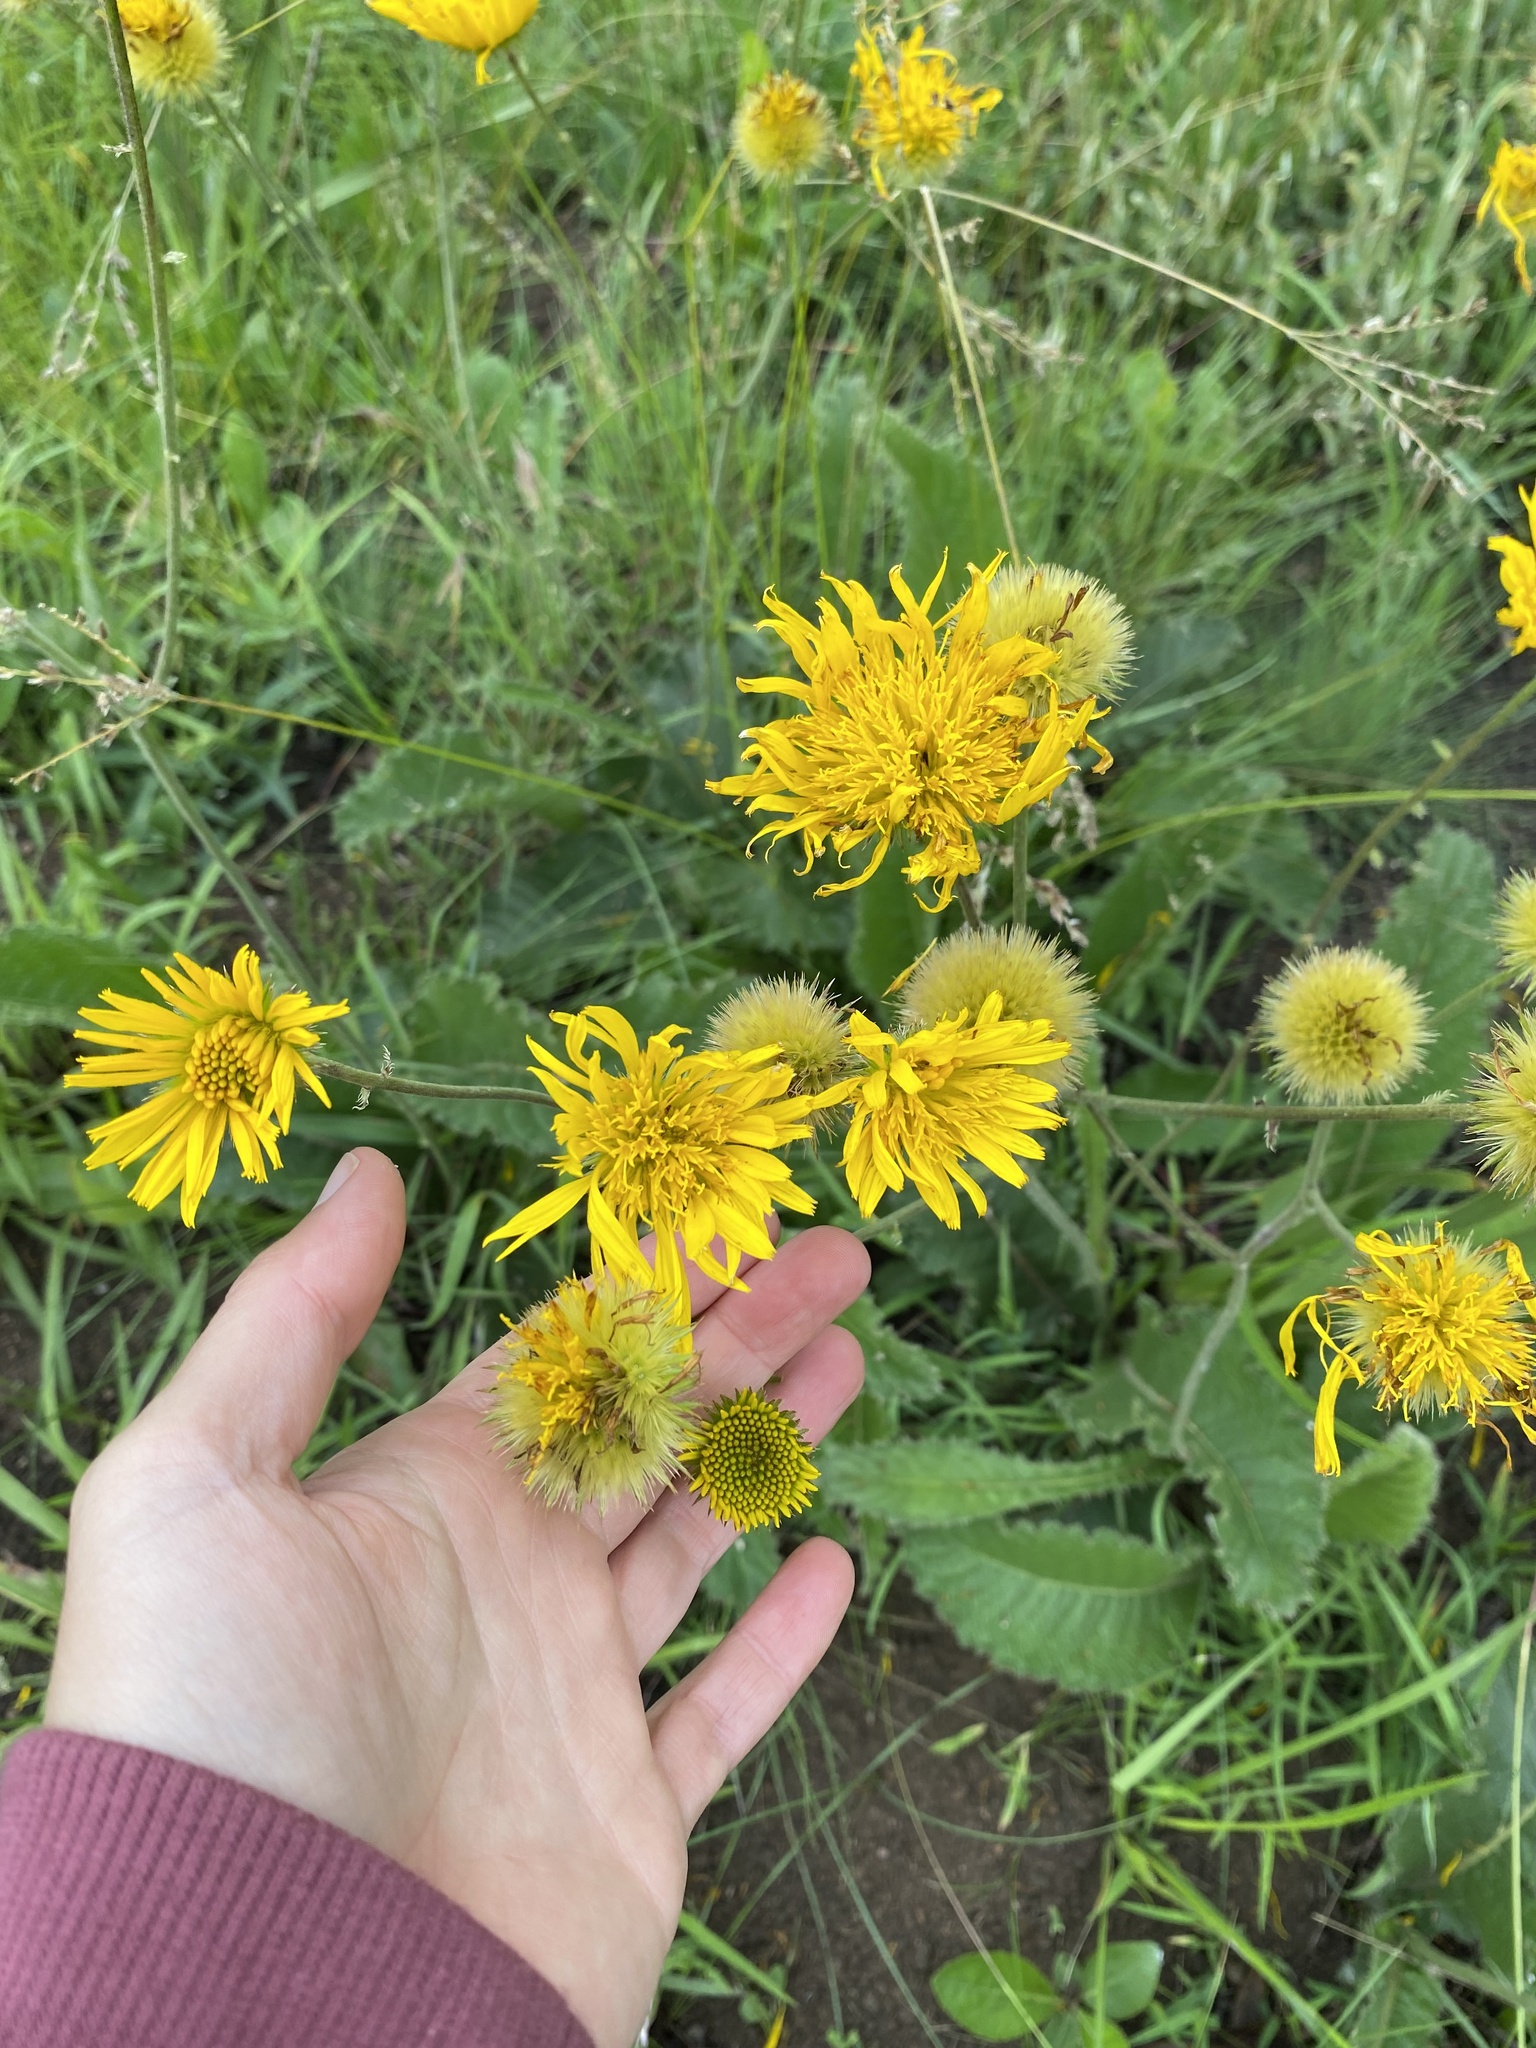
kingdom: Plantae
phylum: Tracheophyta
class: Magnoliopsida
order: Asterales
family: Asteraceae
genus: Berkheya
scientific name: Berkheya setifera
